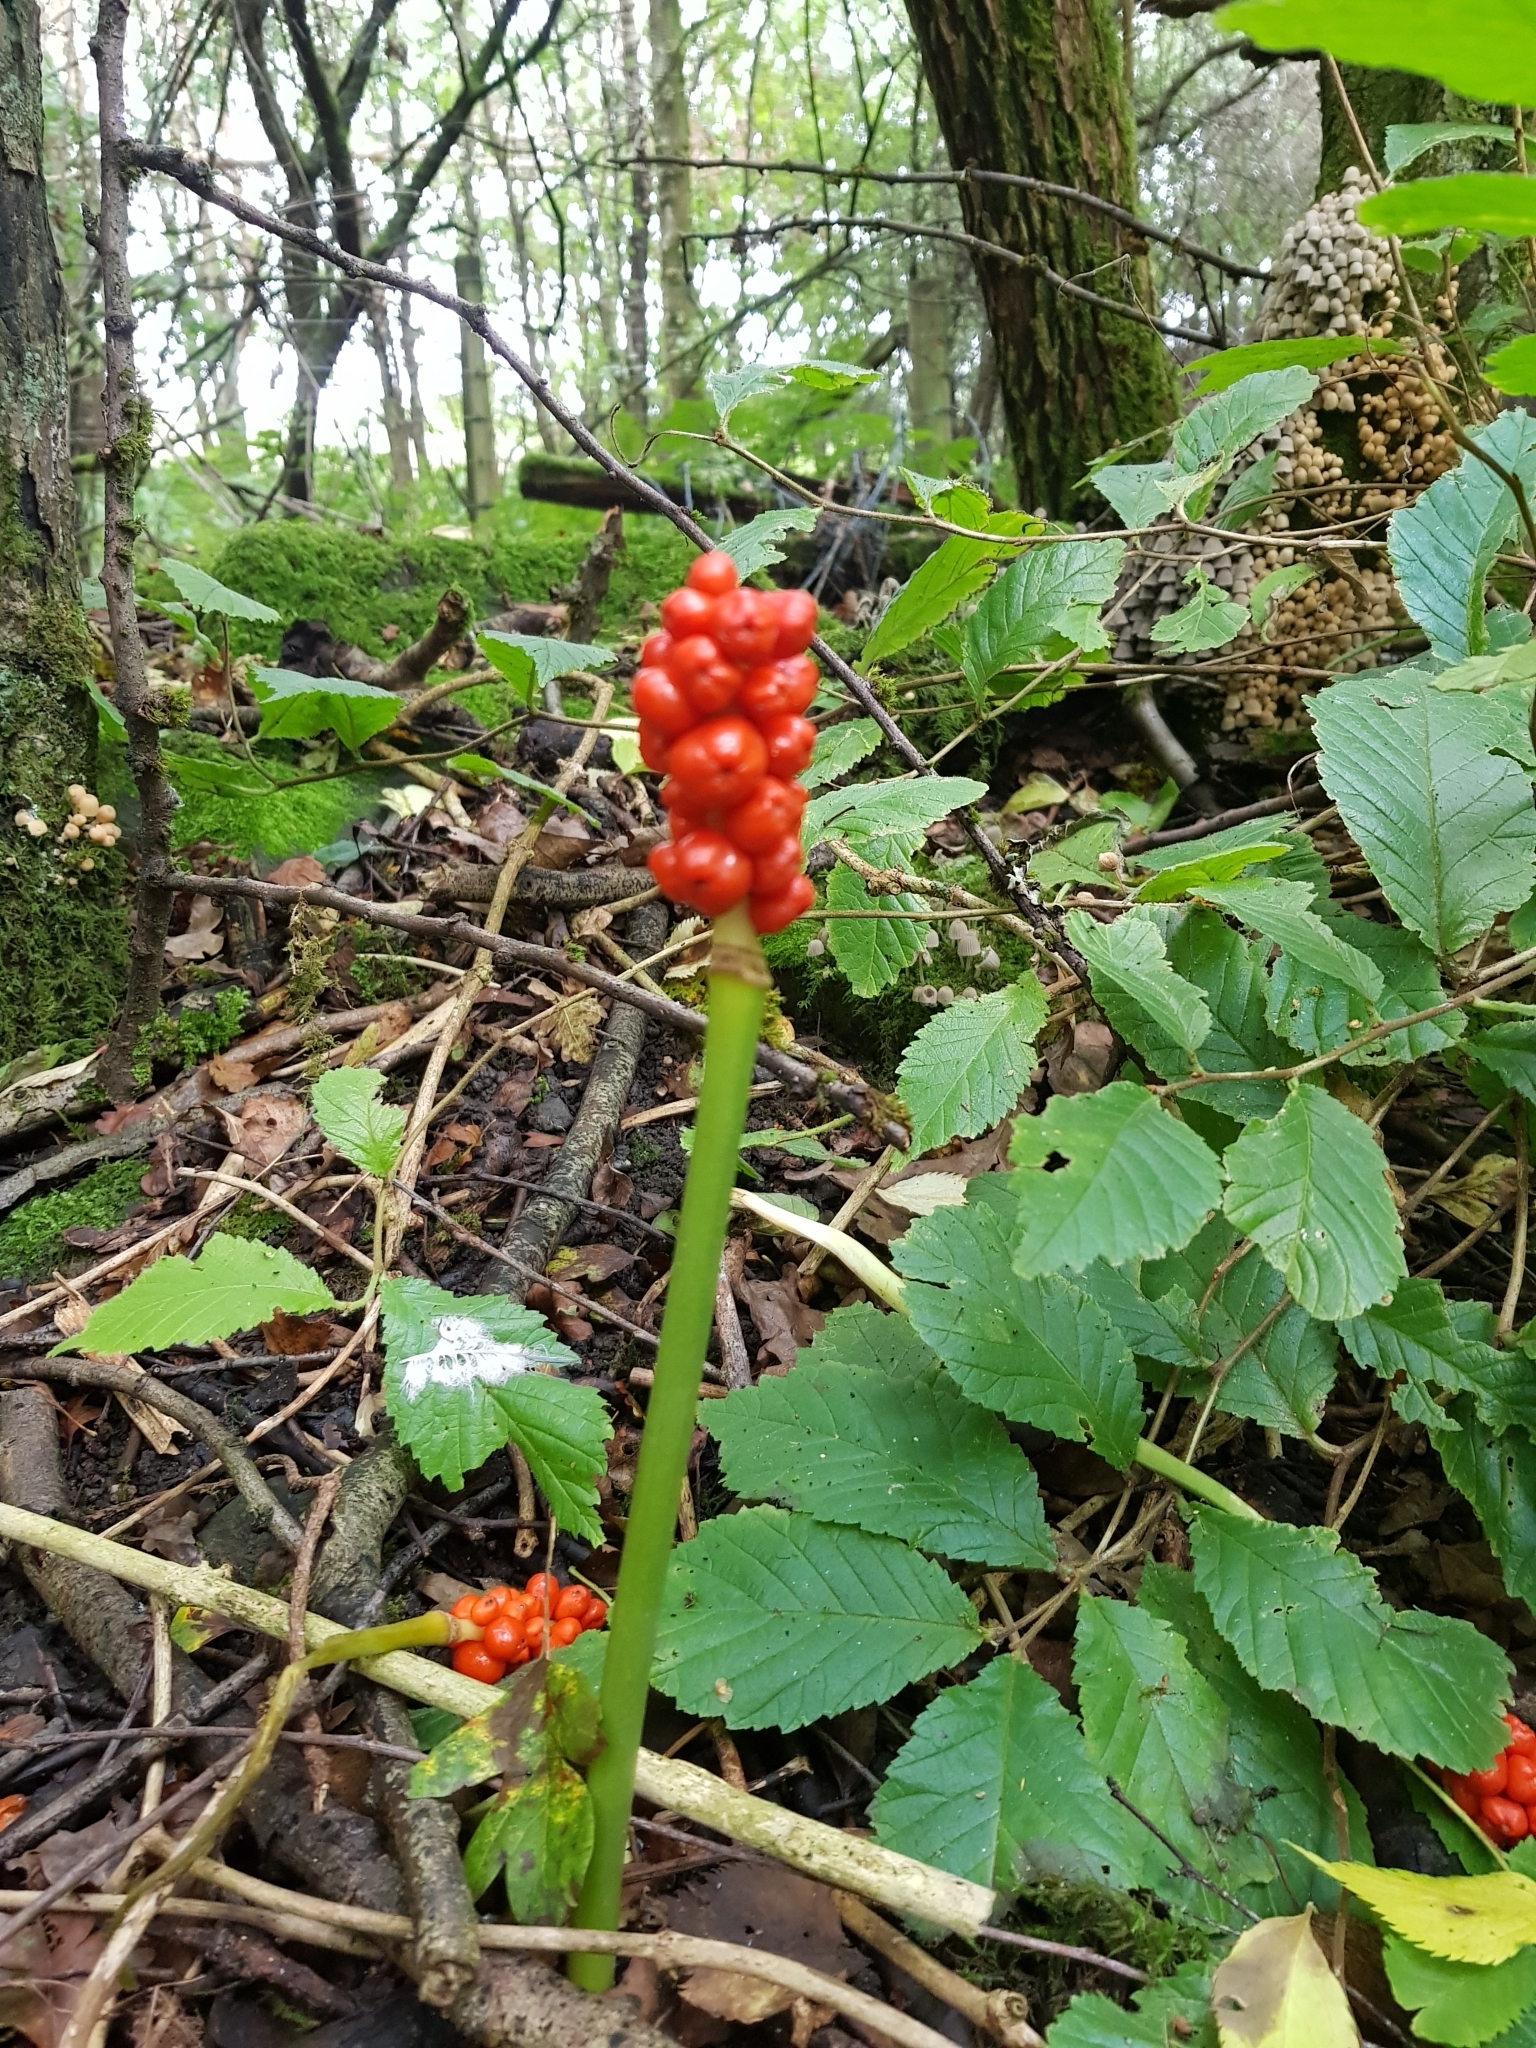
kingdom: Plantae
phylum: Tracheophyta
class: Liliopsida
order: Alismatales
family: Araceae
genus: Arum
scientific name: Arum maculatum
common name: Lords-and-ladies
